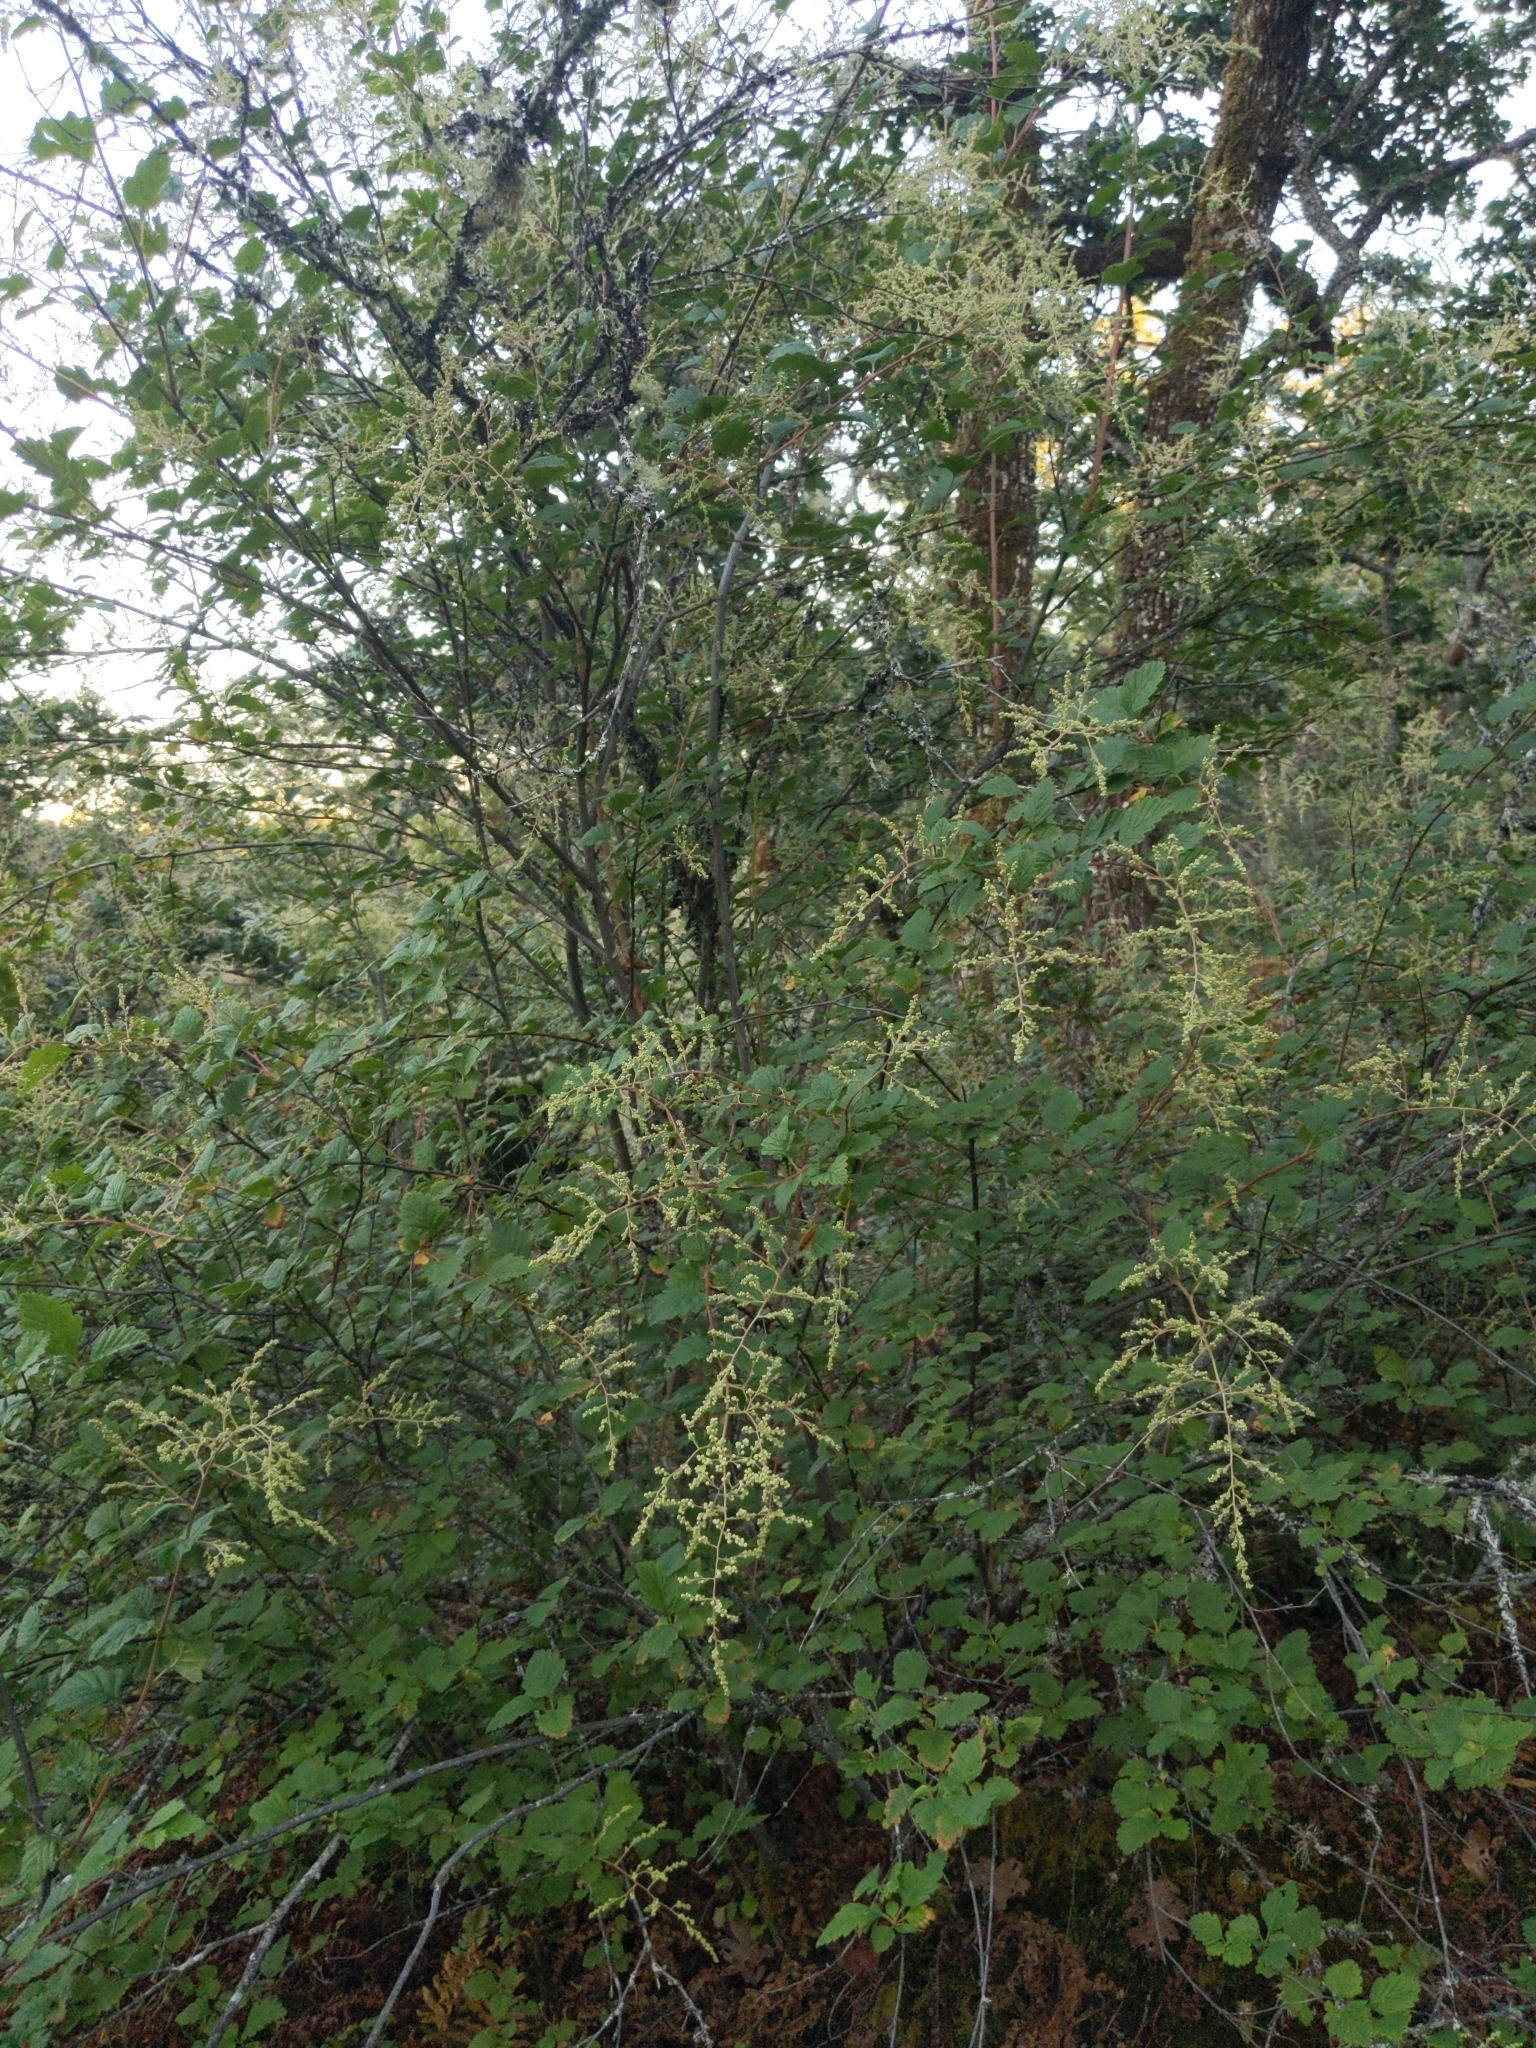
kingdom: Plantae
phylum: Tracheophyta
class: Magnoliopsida
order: Rosales
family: Rosaceae
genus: Holodiscus
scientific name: Holodiscus discolor
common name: Oceanspray
